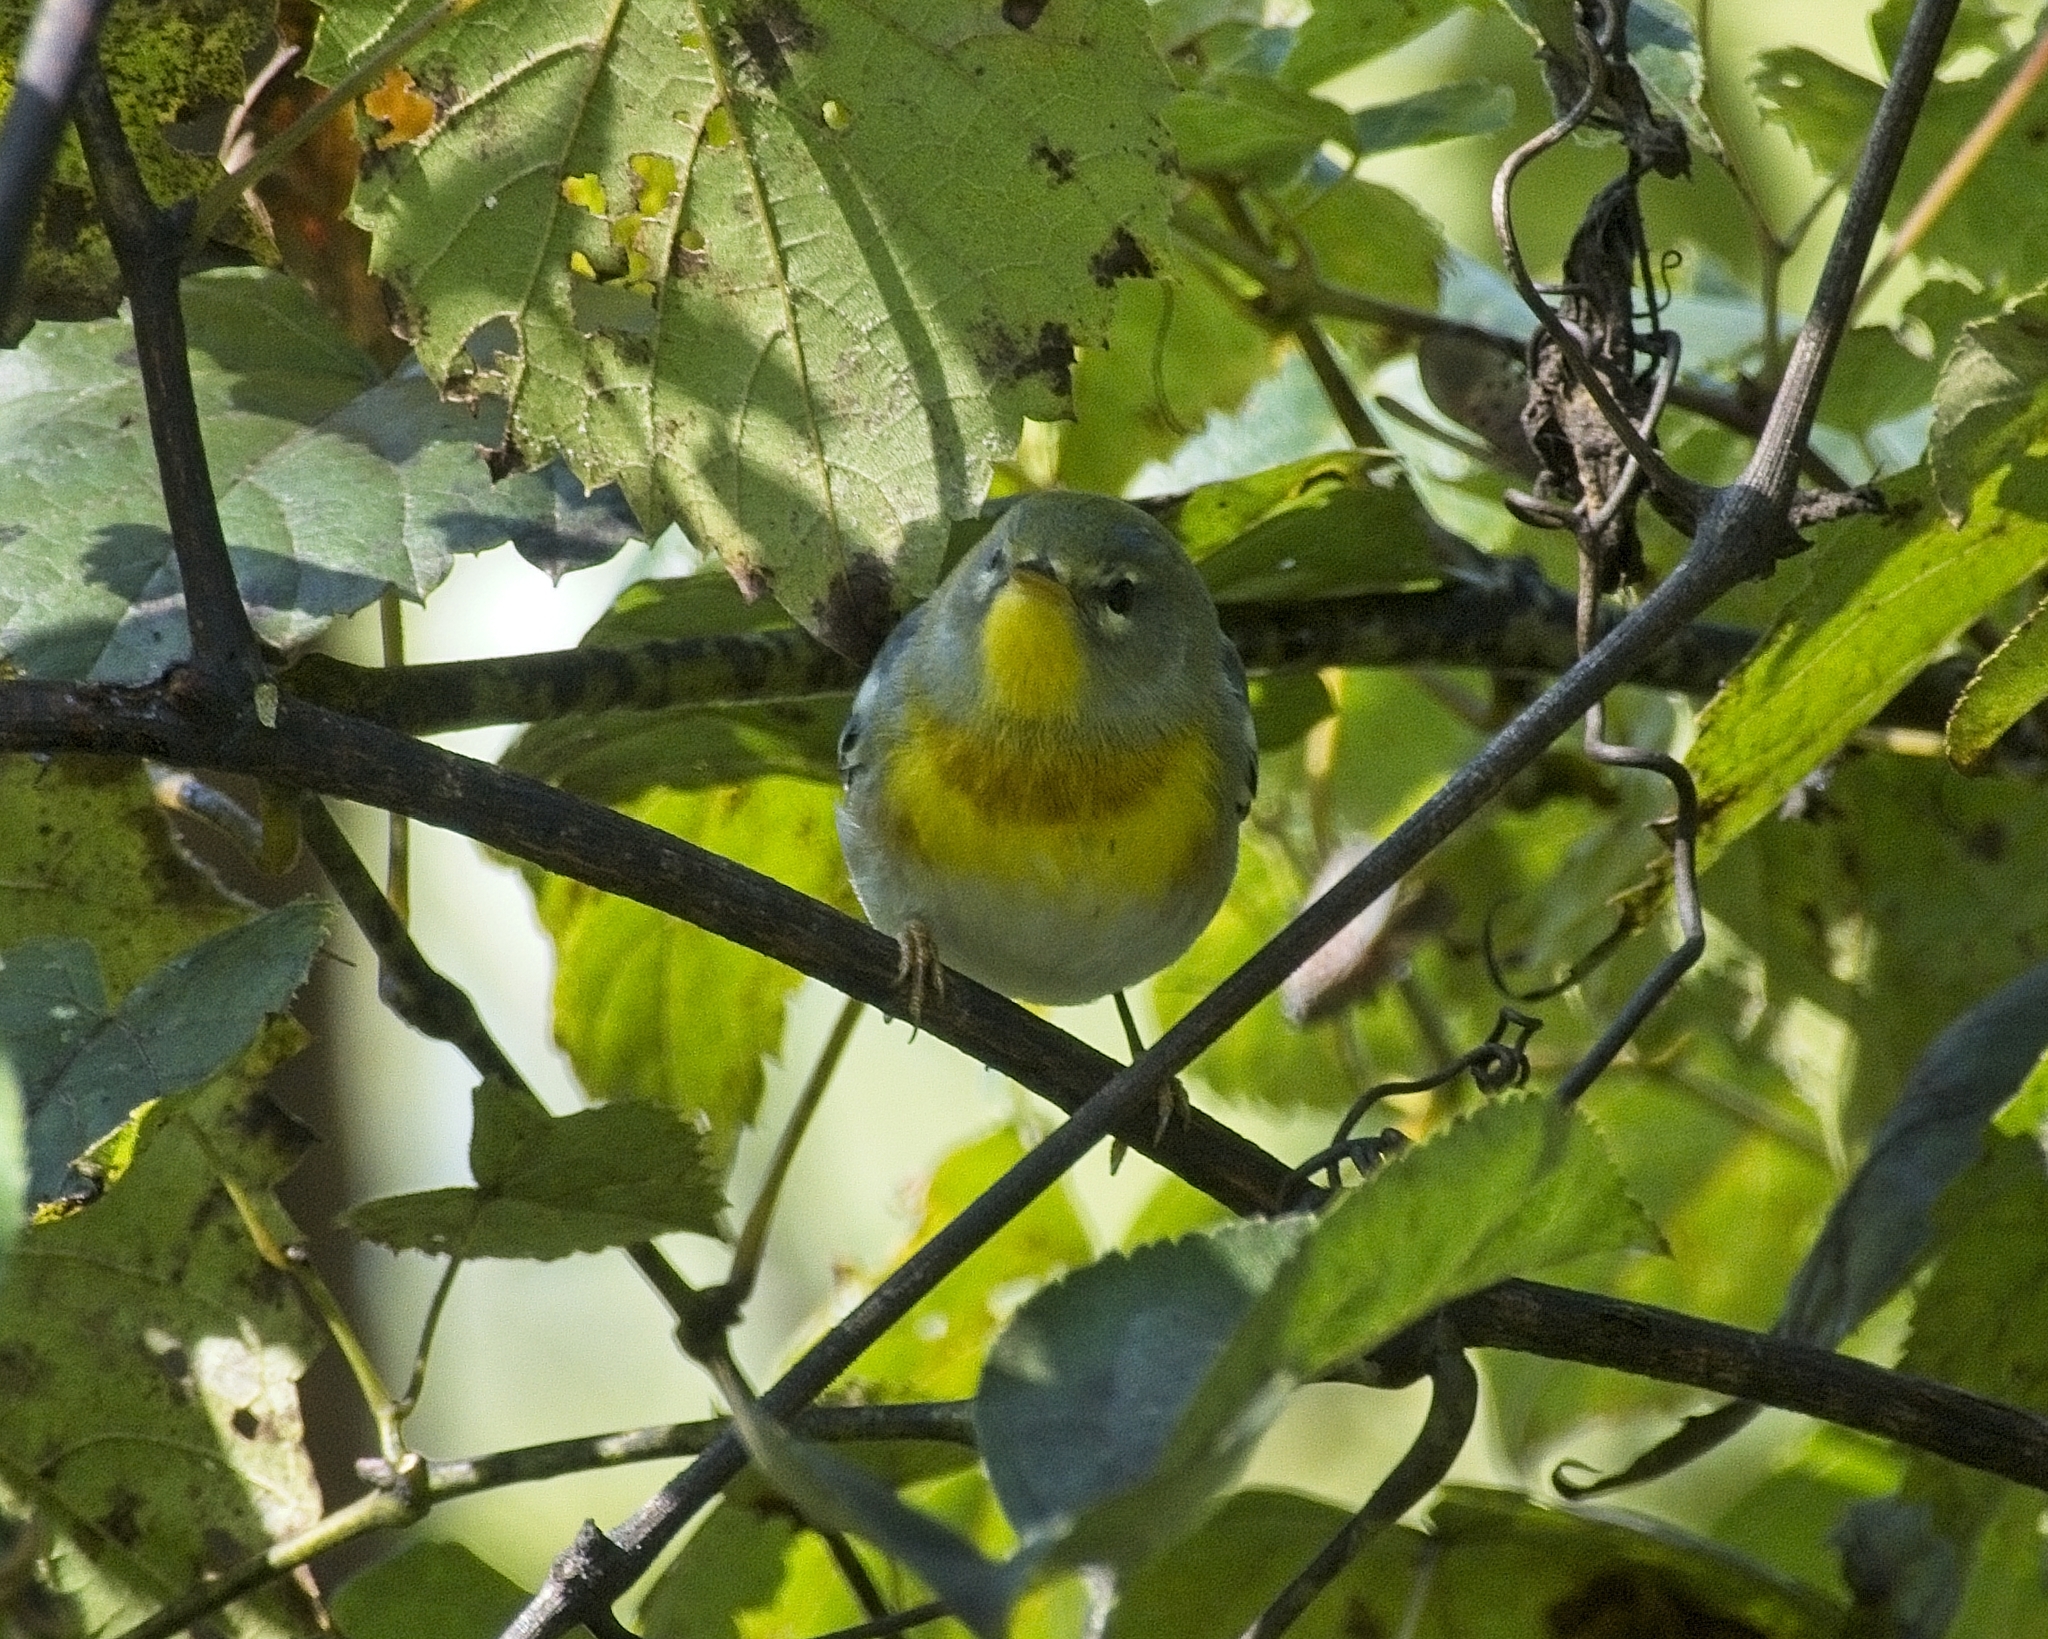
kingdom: Animalia
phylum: Chordata
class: Aves
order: Passeriformes
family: Parulidae
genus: Setophaga
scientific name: Setophaga americana
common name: Northern parula
